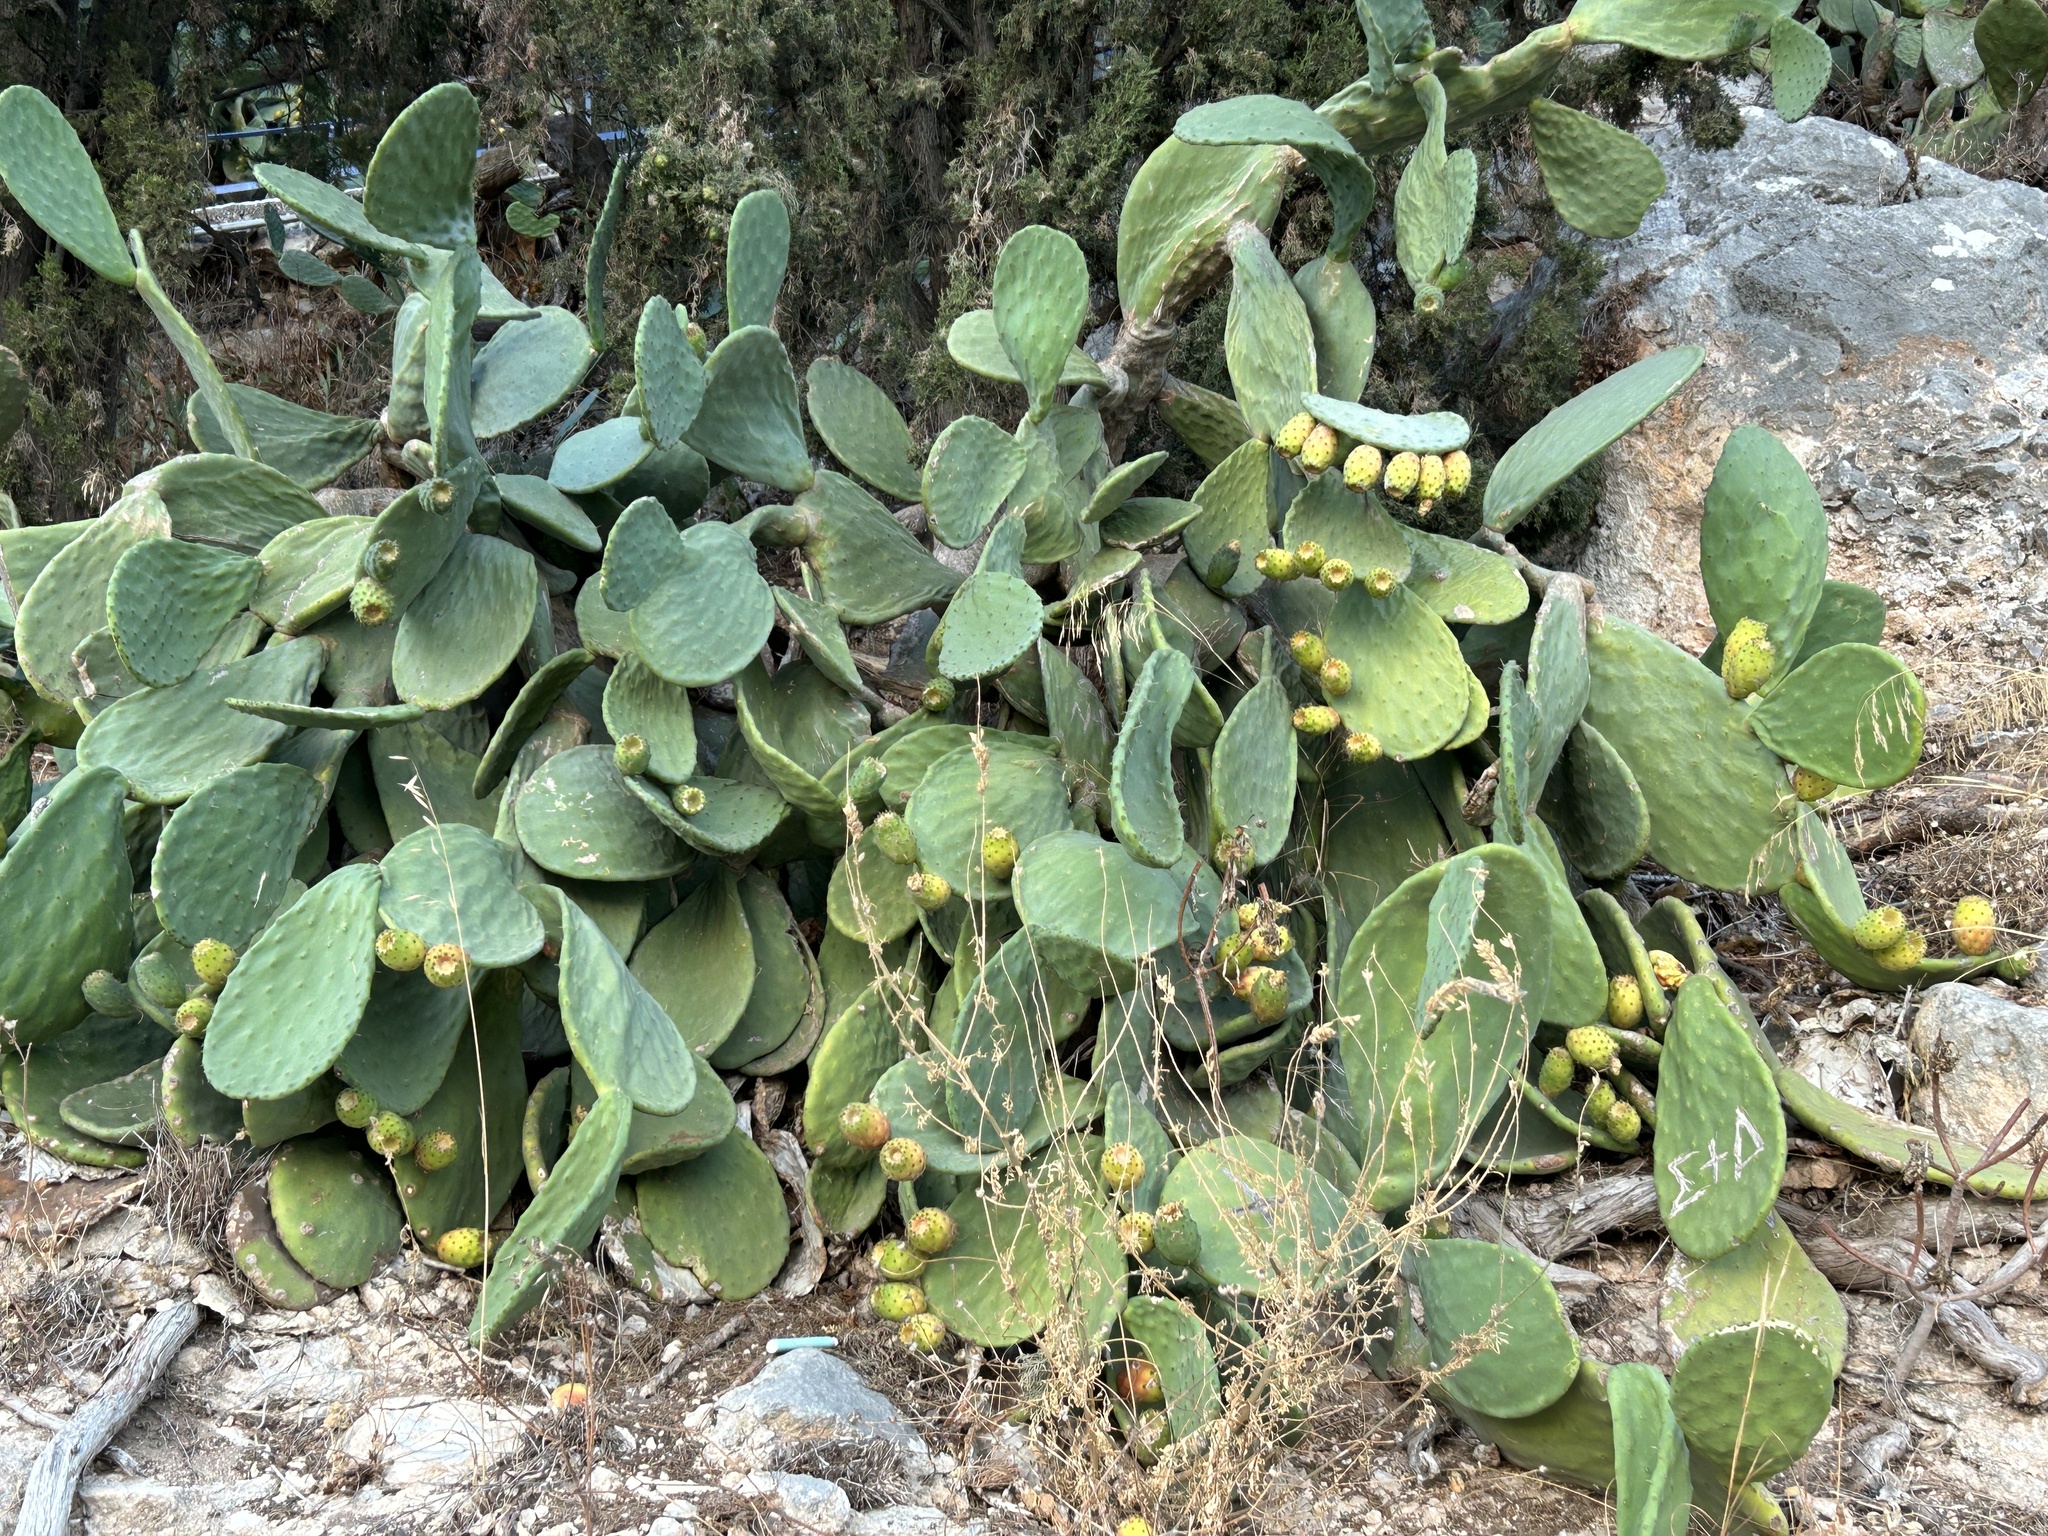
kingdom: Plantae
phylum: Tracheophyta
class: Magnoliopsida
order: Caryophyllales
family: Cactaceae
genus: Opuntia
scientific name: Opuntia ficus-indica
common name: Barbary fig
